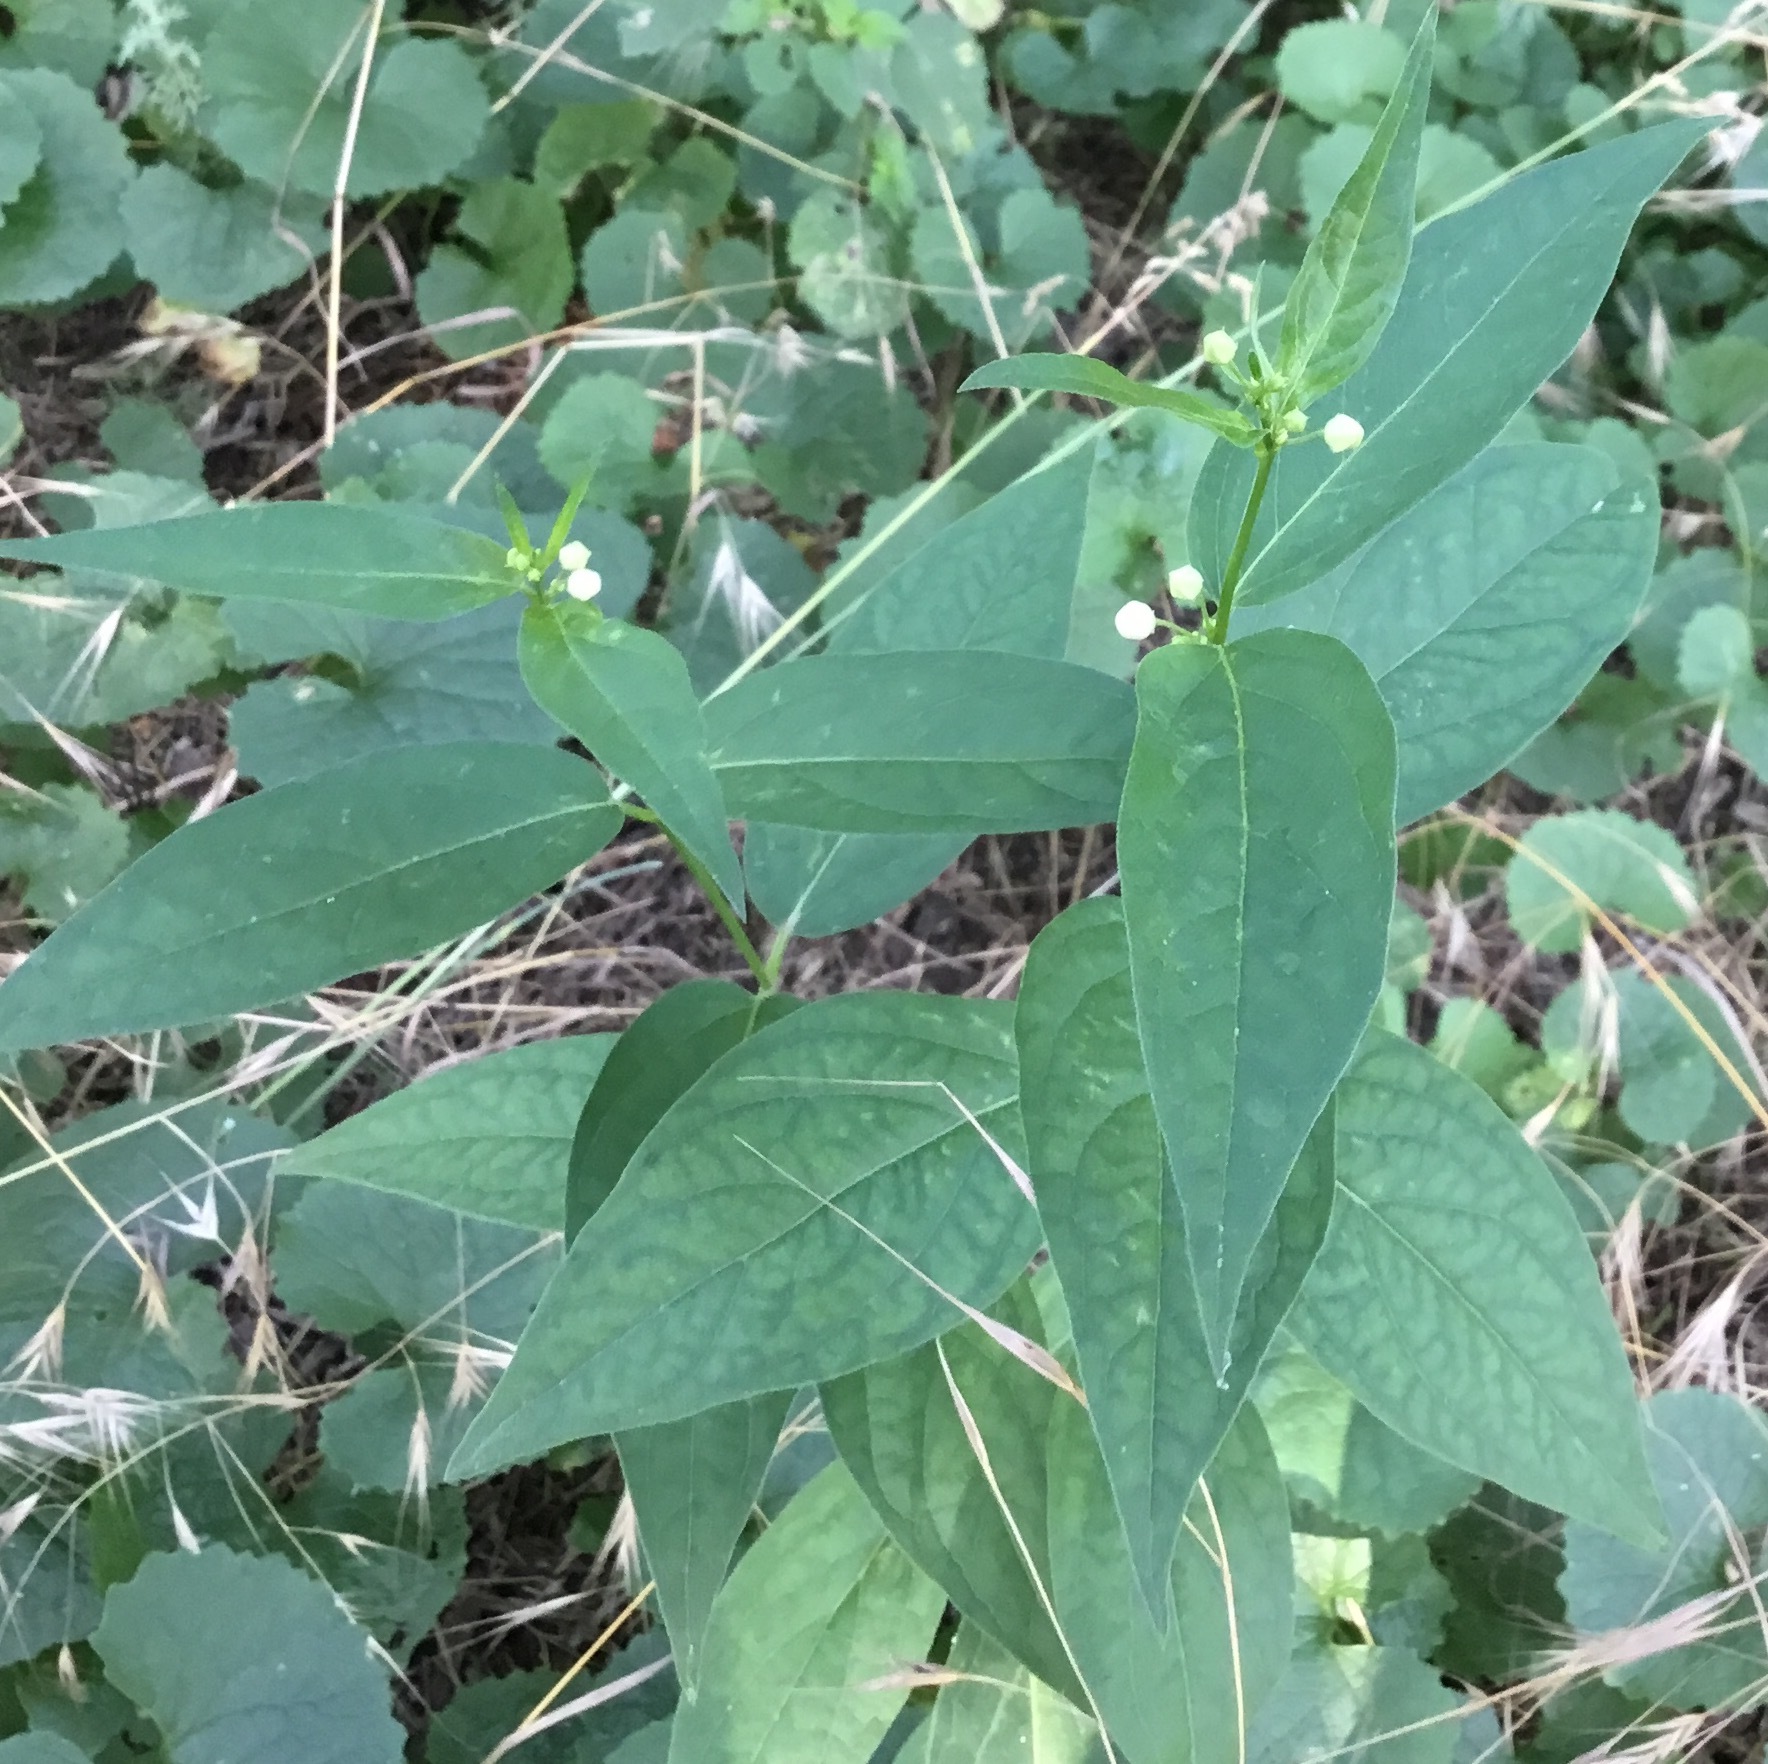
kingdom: Plantae
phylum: Tracheophyta
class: Magnoliopsida
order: Gentianales
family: Apocynaceae
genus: Vincetoxicum
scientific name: Vincetoxicum hirundinaria
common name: White swallowwort
